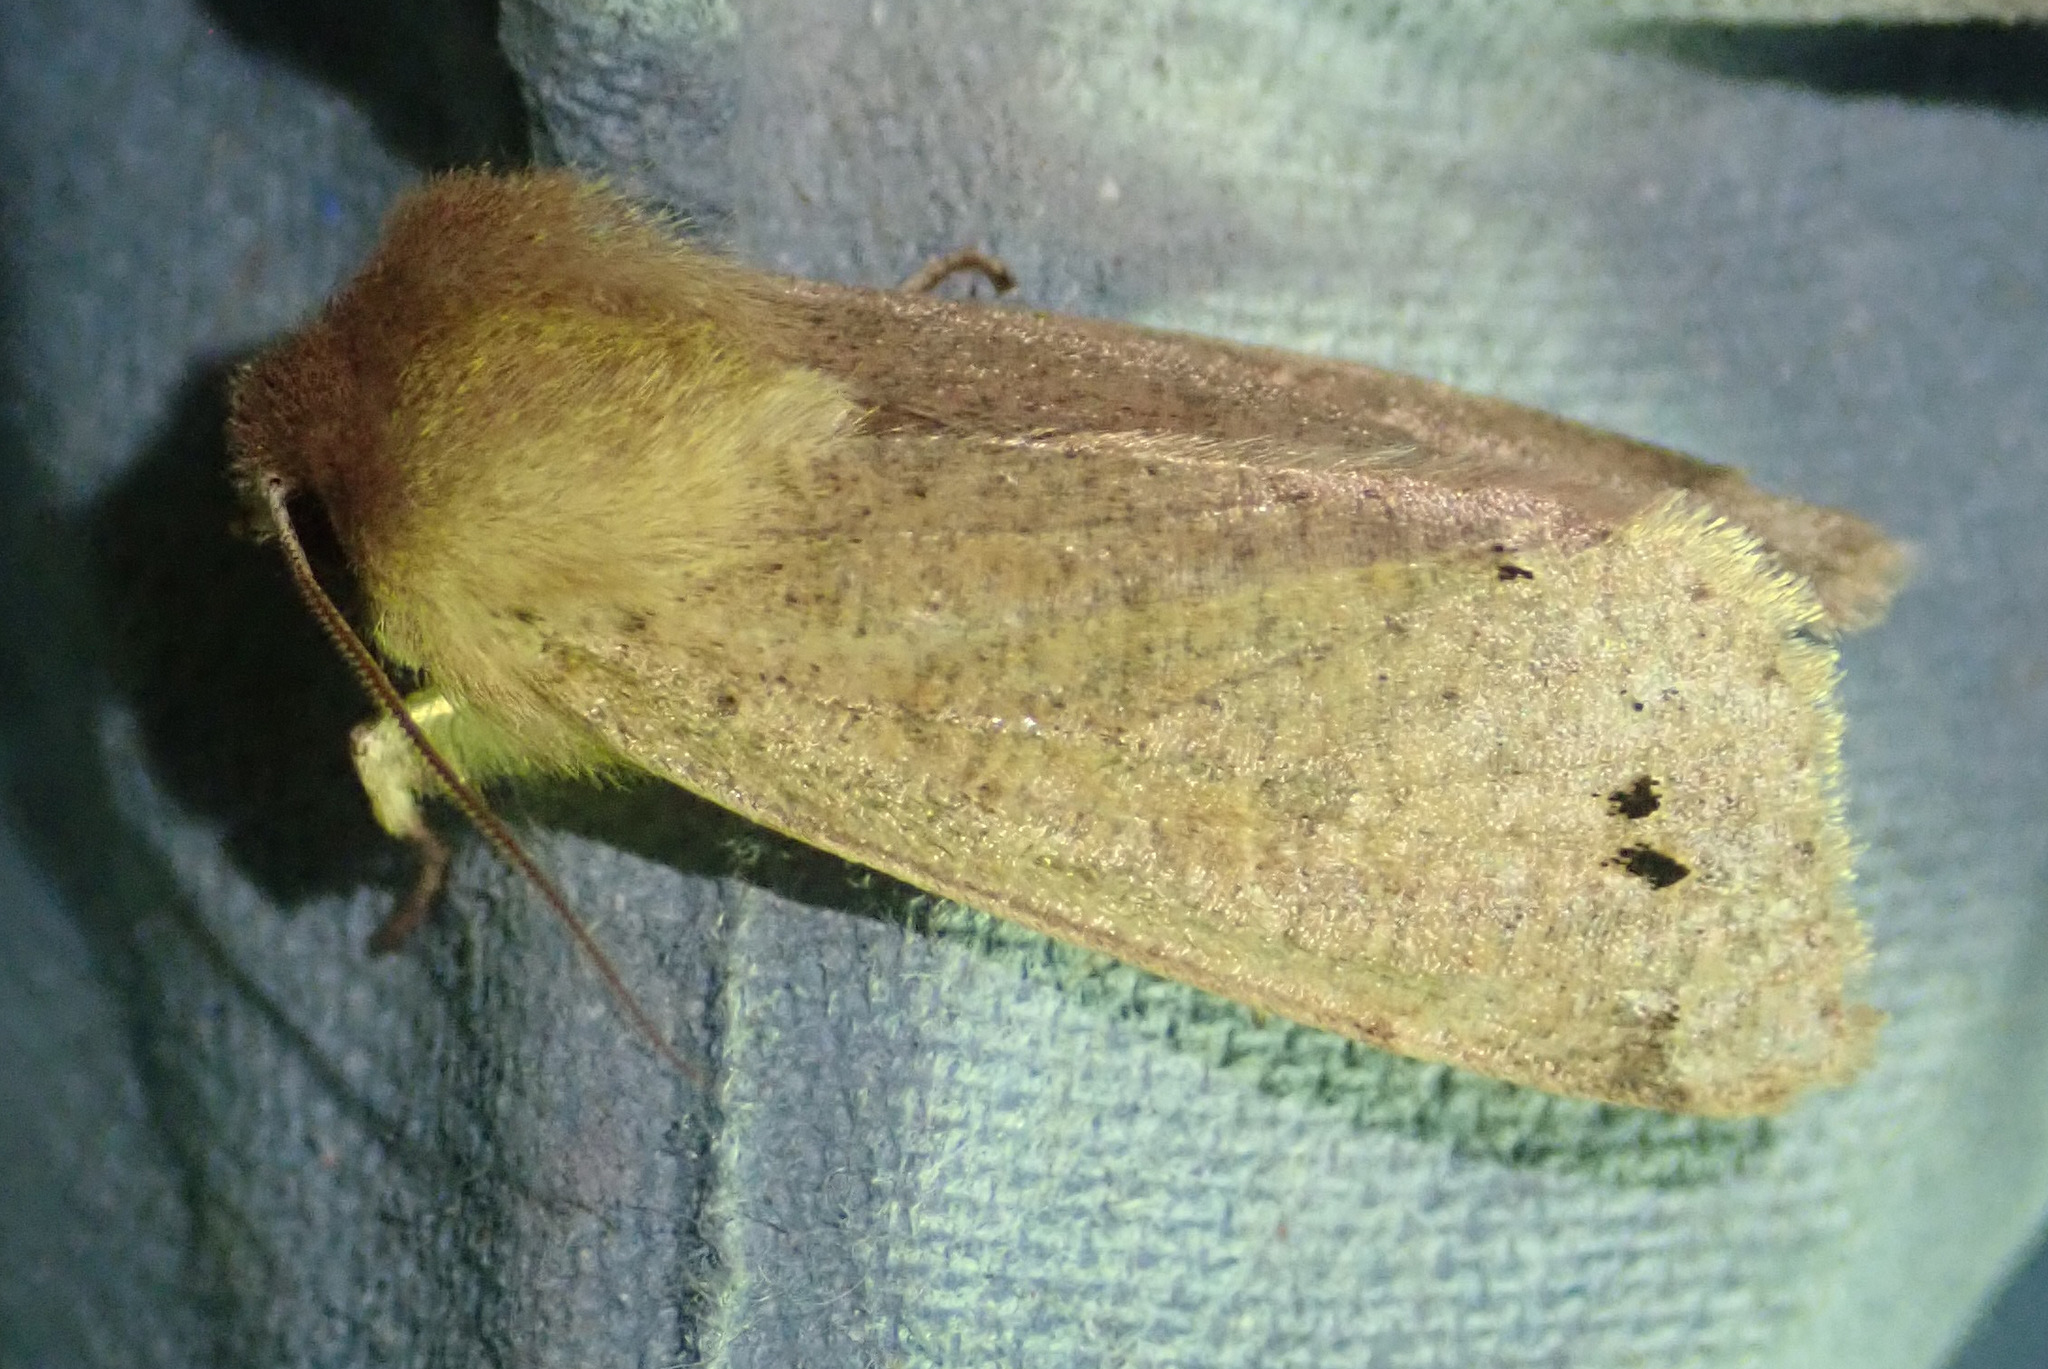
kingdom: Animalia
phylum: Arthropoda
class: Insecta
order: Lepidoptera
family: Noctuidae
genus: Anorthoa
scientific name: Anorthoa munda
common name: Twin-spotted quaker
